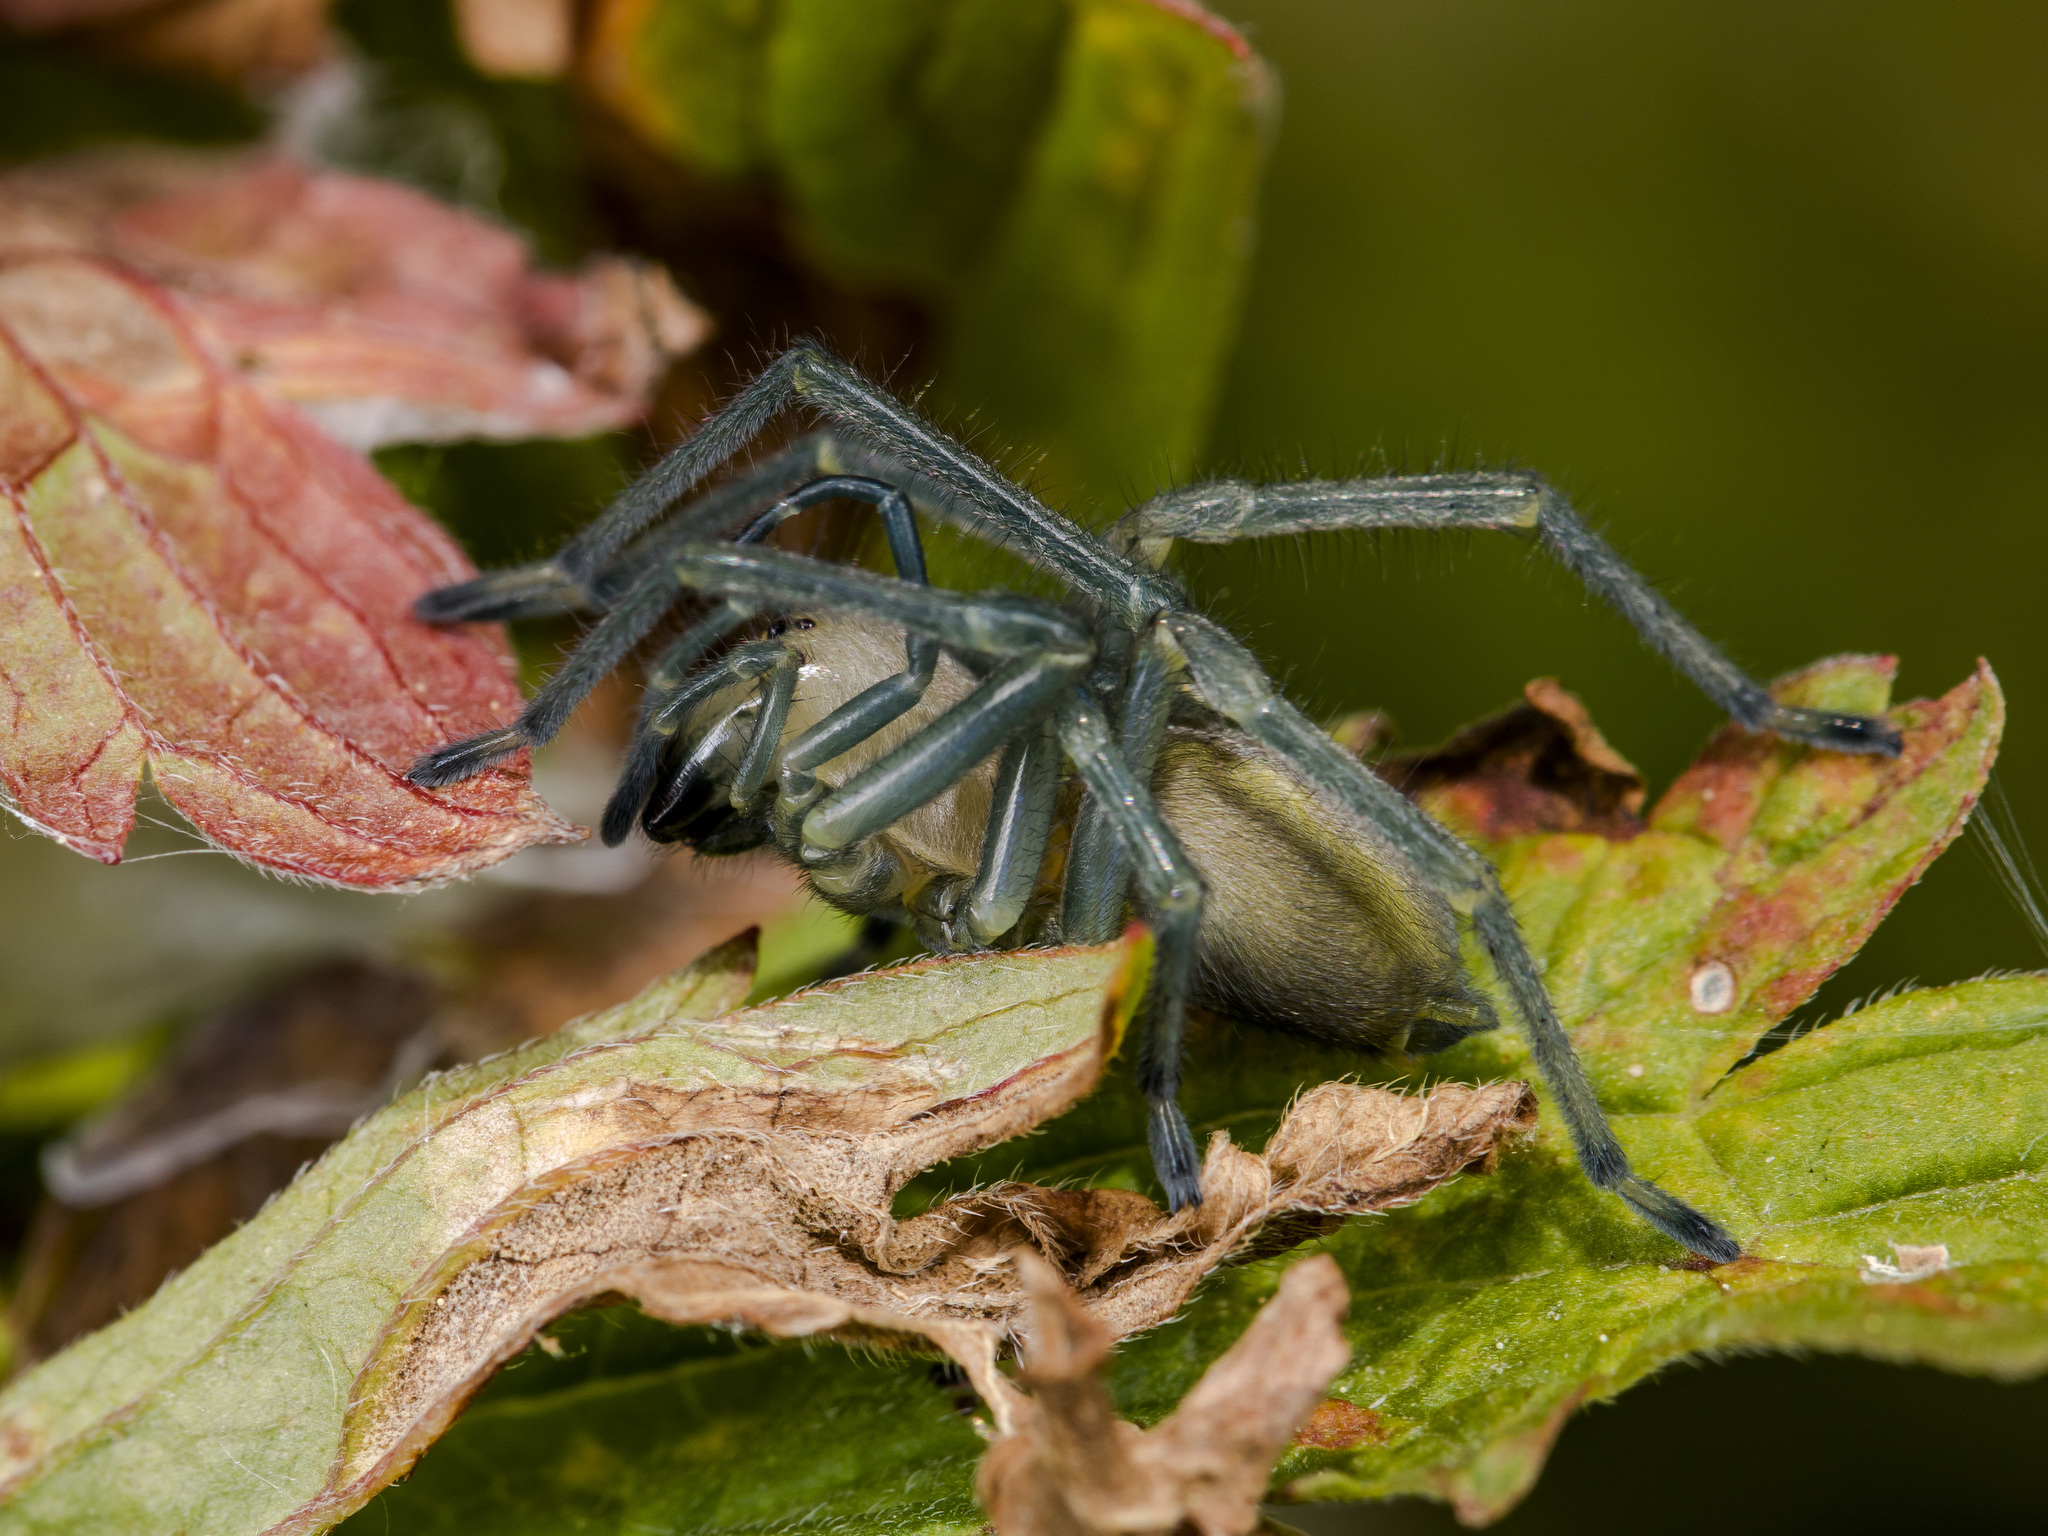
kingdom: Animalia
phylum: Arthropoda
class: Arachnida
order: Araneae
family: Cheiracanthiidae
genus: Cheiracanthium
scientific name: Cheiracanthium punctorium
